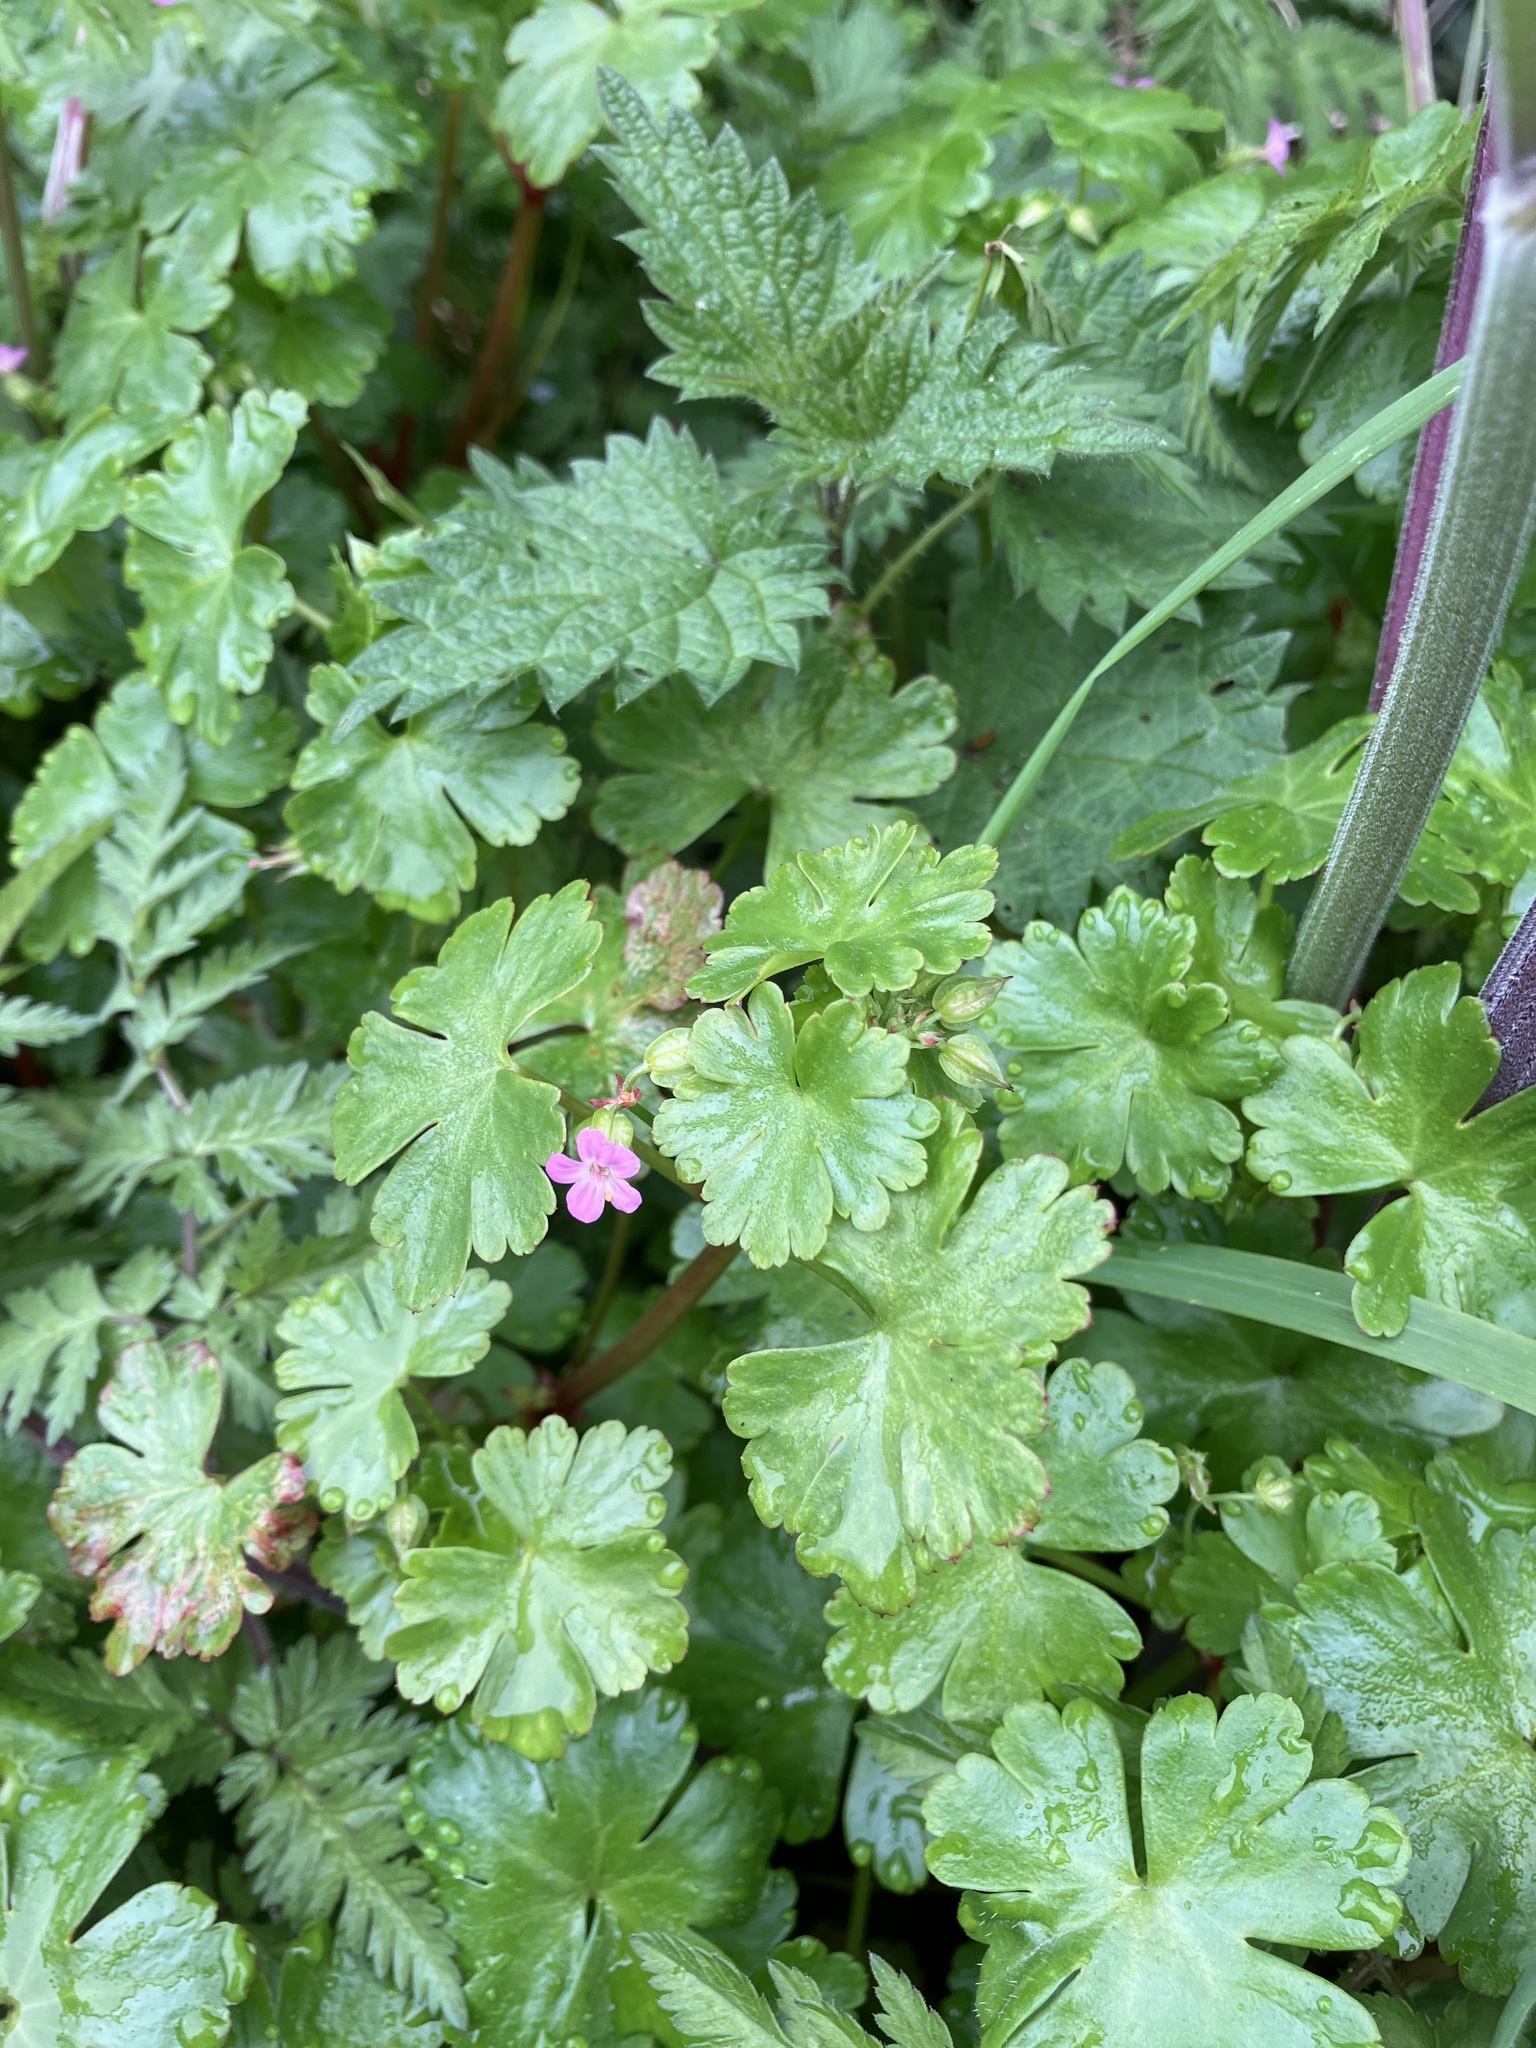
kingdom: Plantae
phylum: Tracheophyta
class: Magnoliopsida
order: Geraniales
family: Geraniaceae
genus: Geranium
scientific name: Geranium lucidum
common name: Shining crane's-bill
